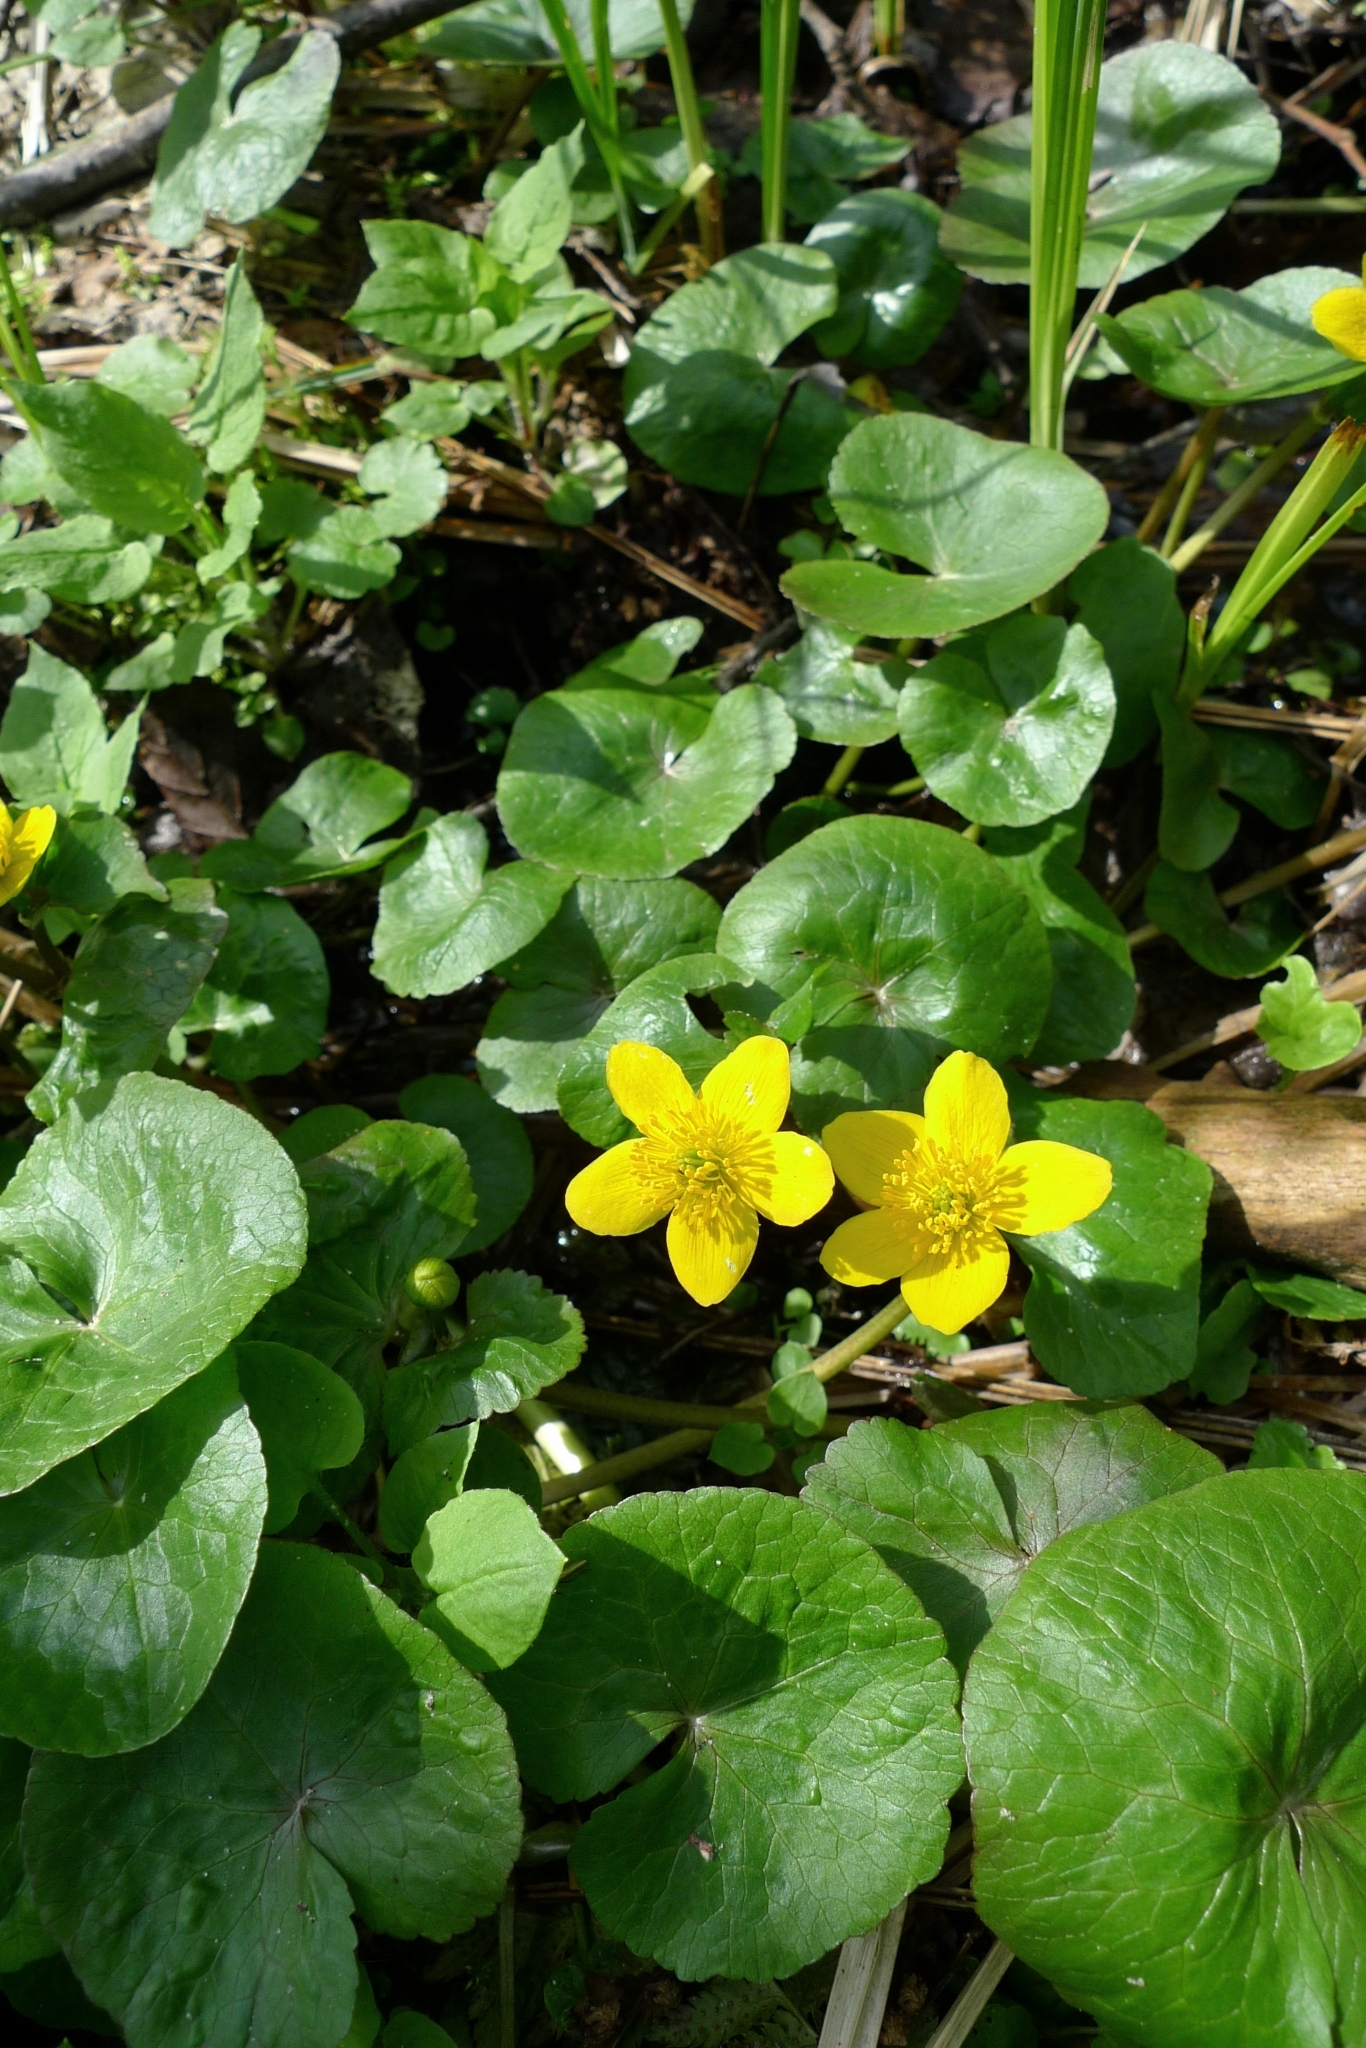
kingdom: Plantae
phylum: Tracheophyta
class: Magnoliopsida
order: Ranunculales
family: Ranunculaceae
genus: Caltha
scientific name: Caltha palustris
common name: Marsh marigold
